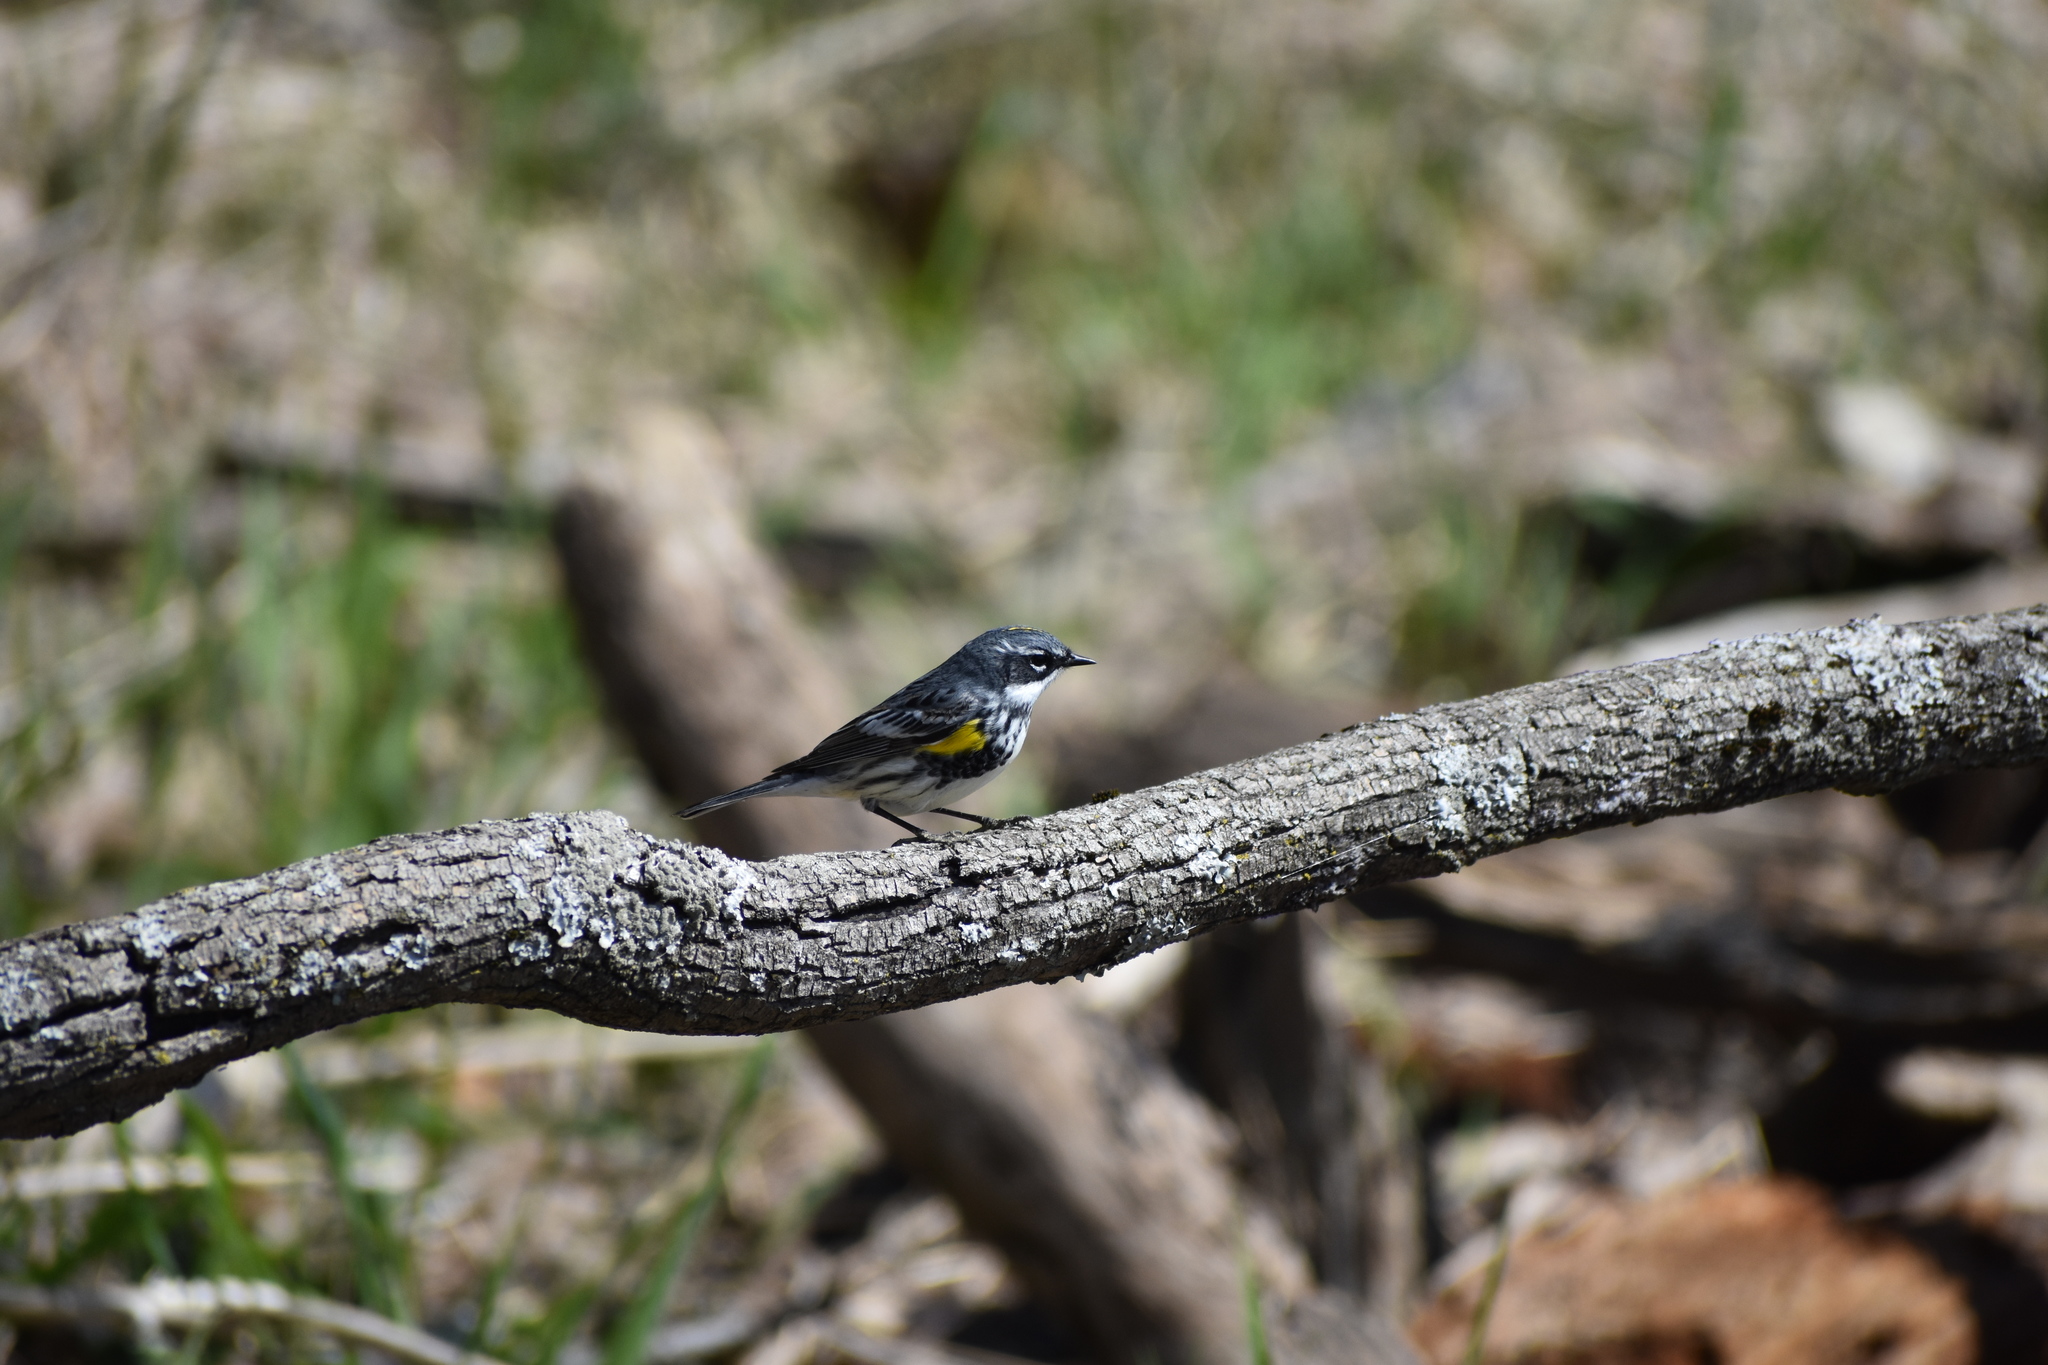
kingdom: Animalia
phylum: Chordata
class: Aves
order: Passeriformes
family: Parulidae
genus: Setophaga
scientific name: Setophaga coronata
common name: Myrtle warbler
